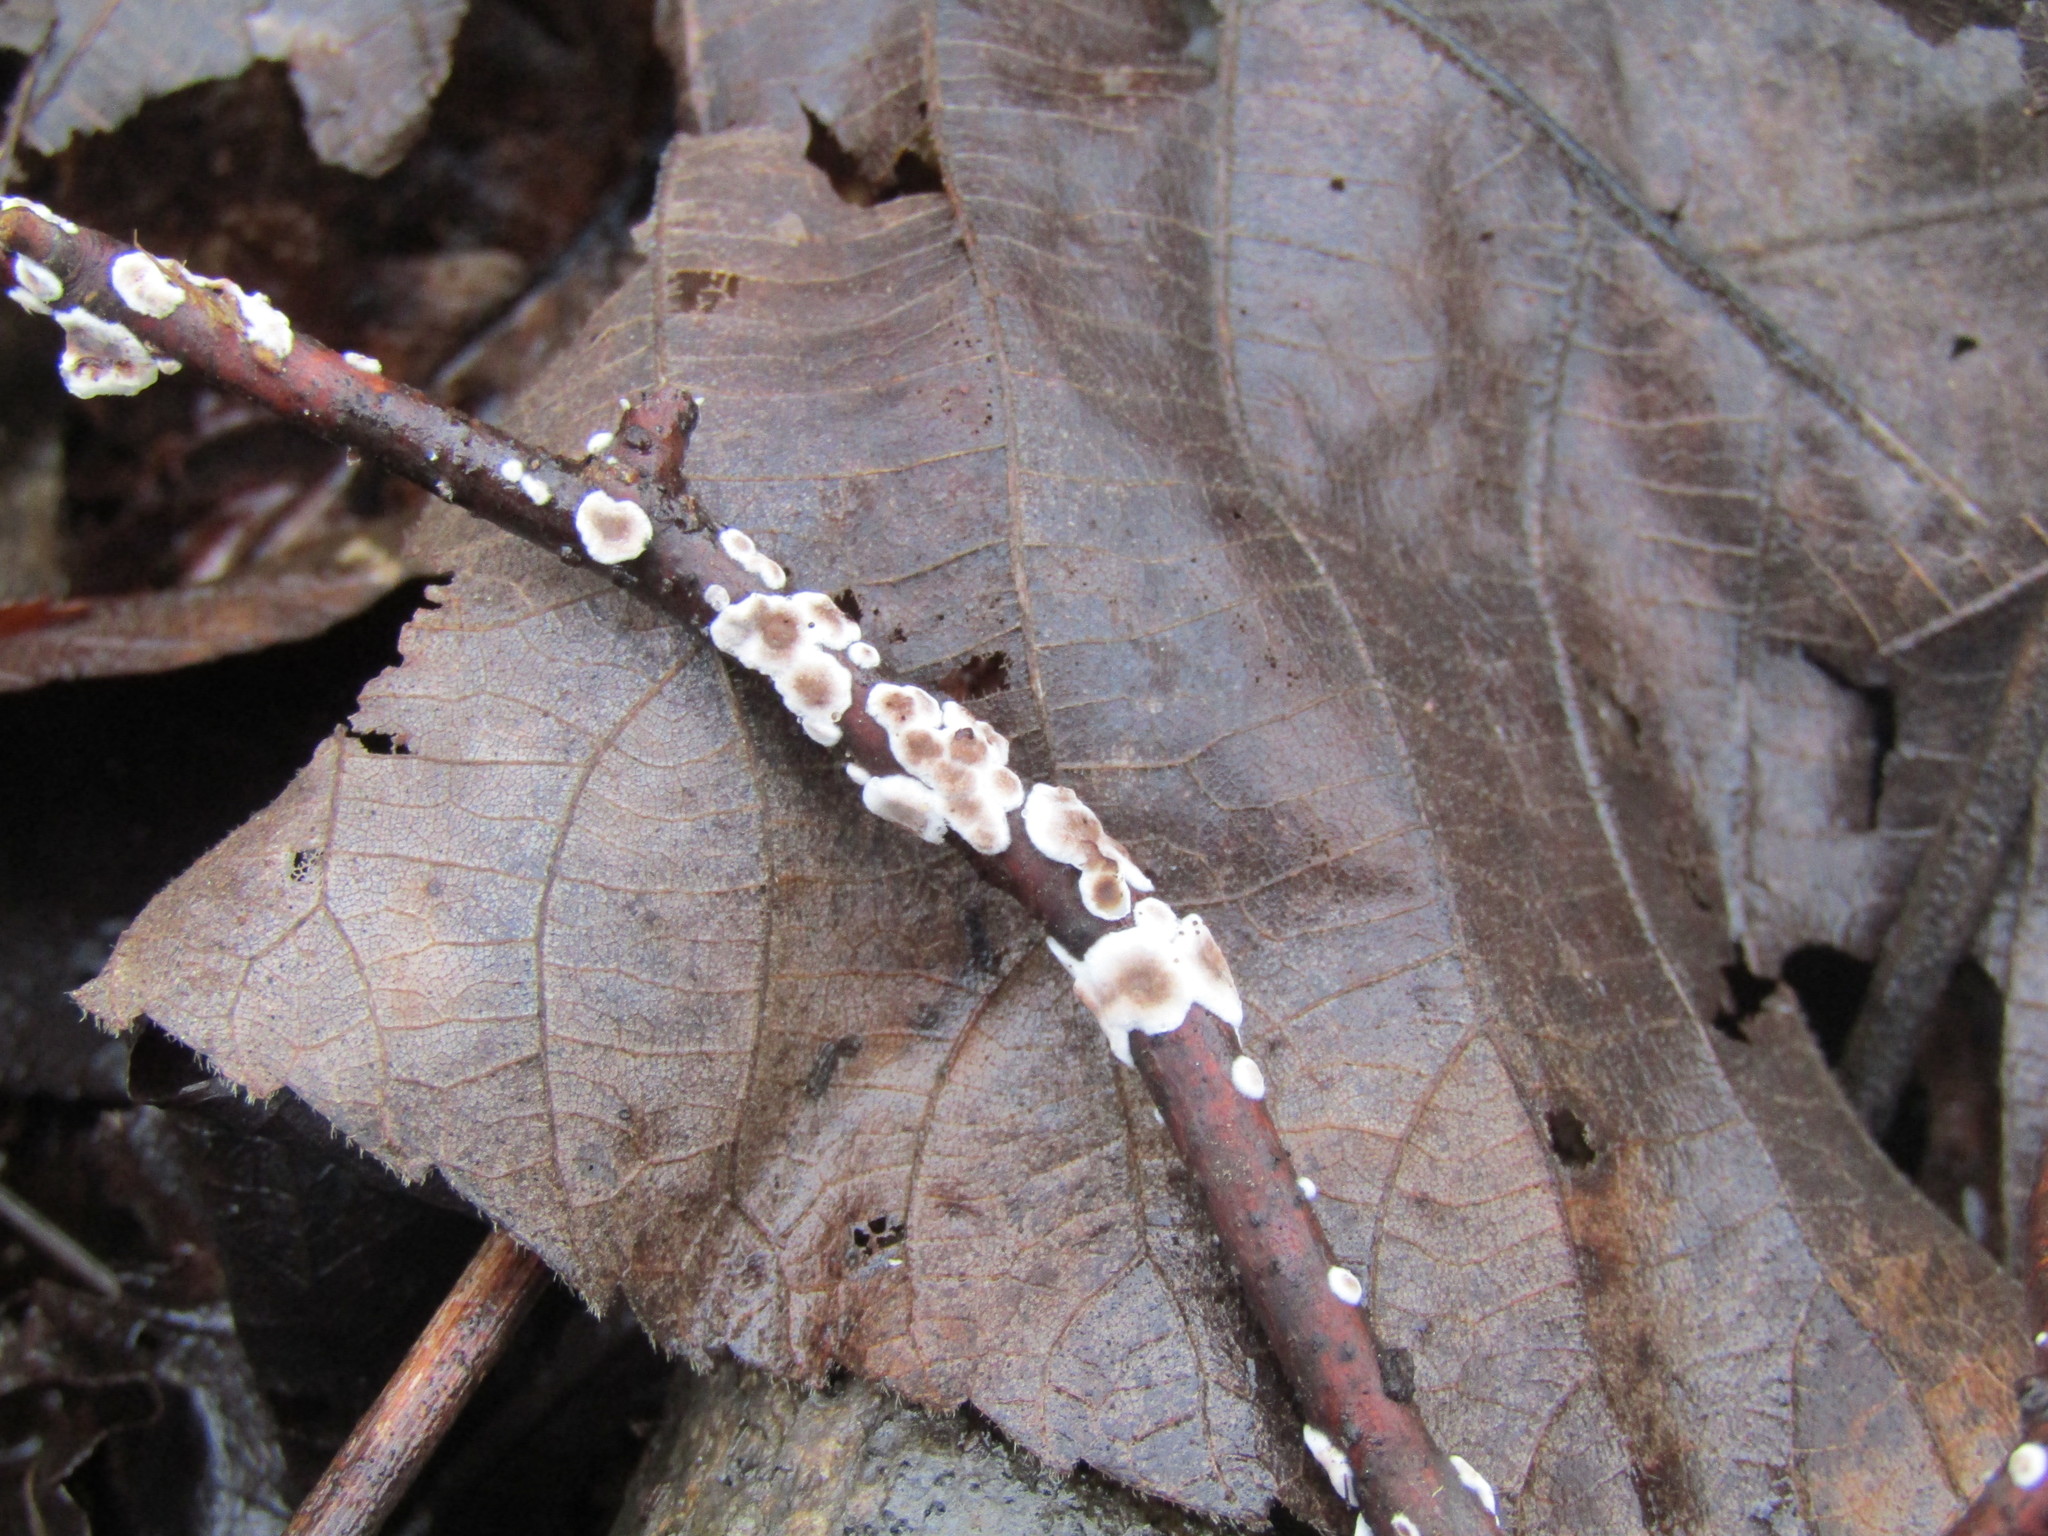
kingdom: Fungi
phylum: Basidiomycota
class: Agaricomycetes
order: Russulales
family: Peniophoraceae
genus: Peniophora
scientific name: Peniophora albobadia
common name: Giraffe spots
